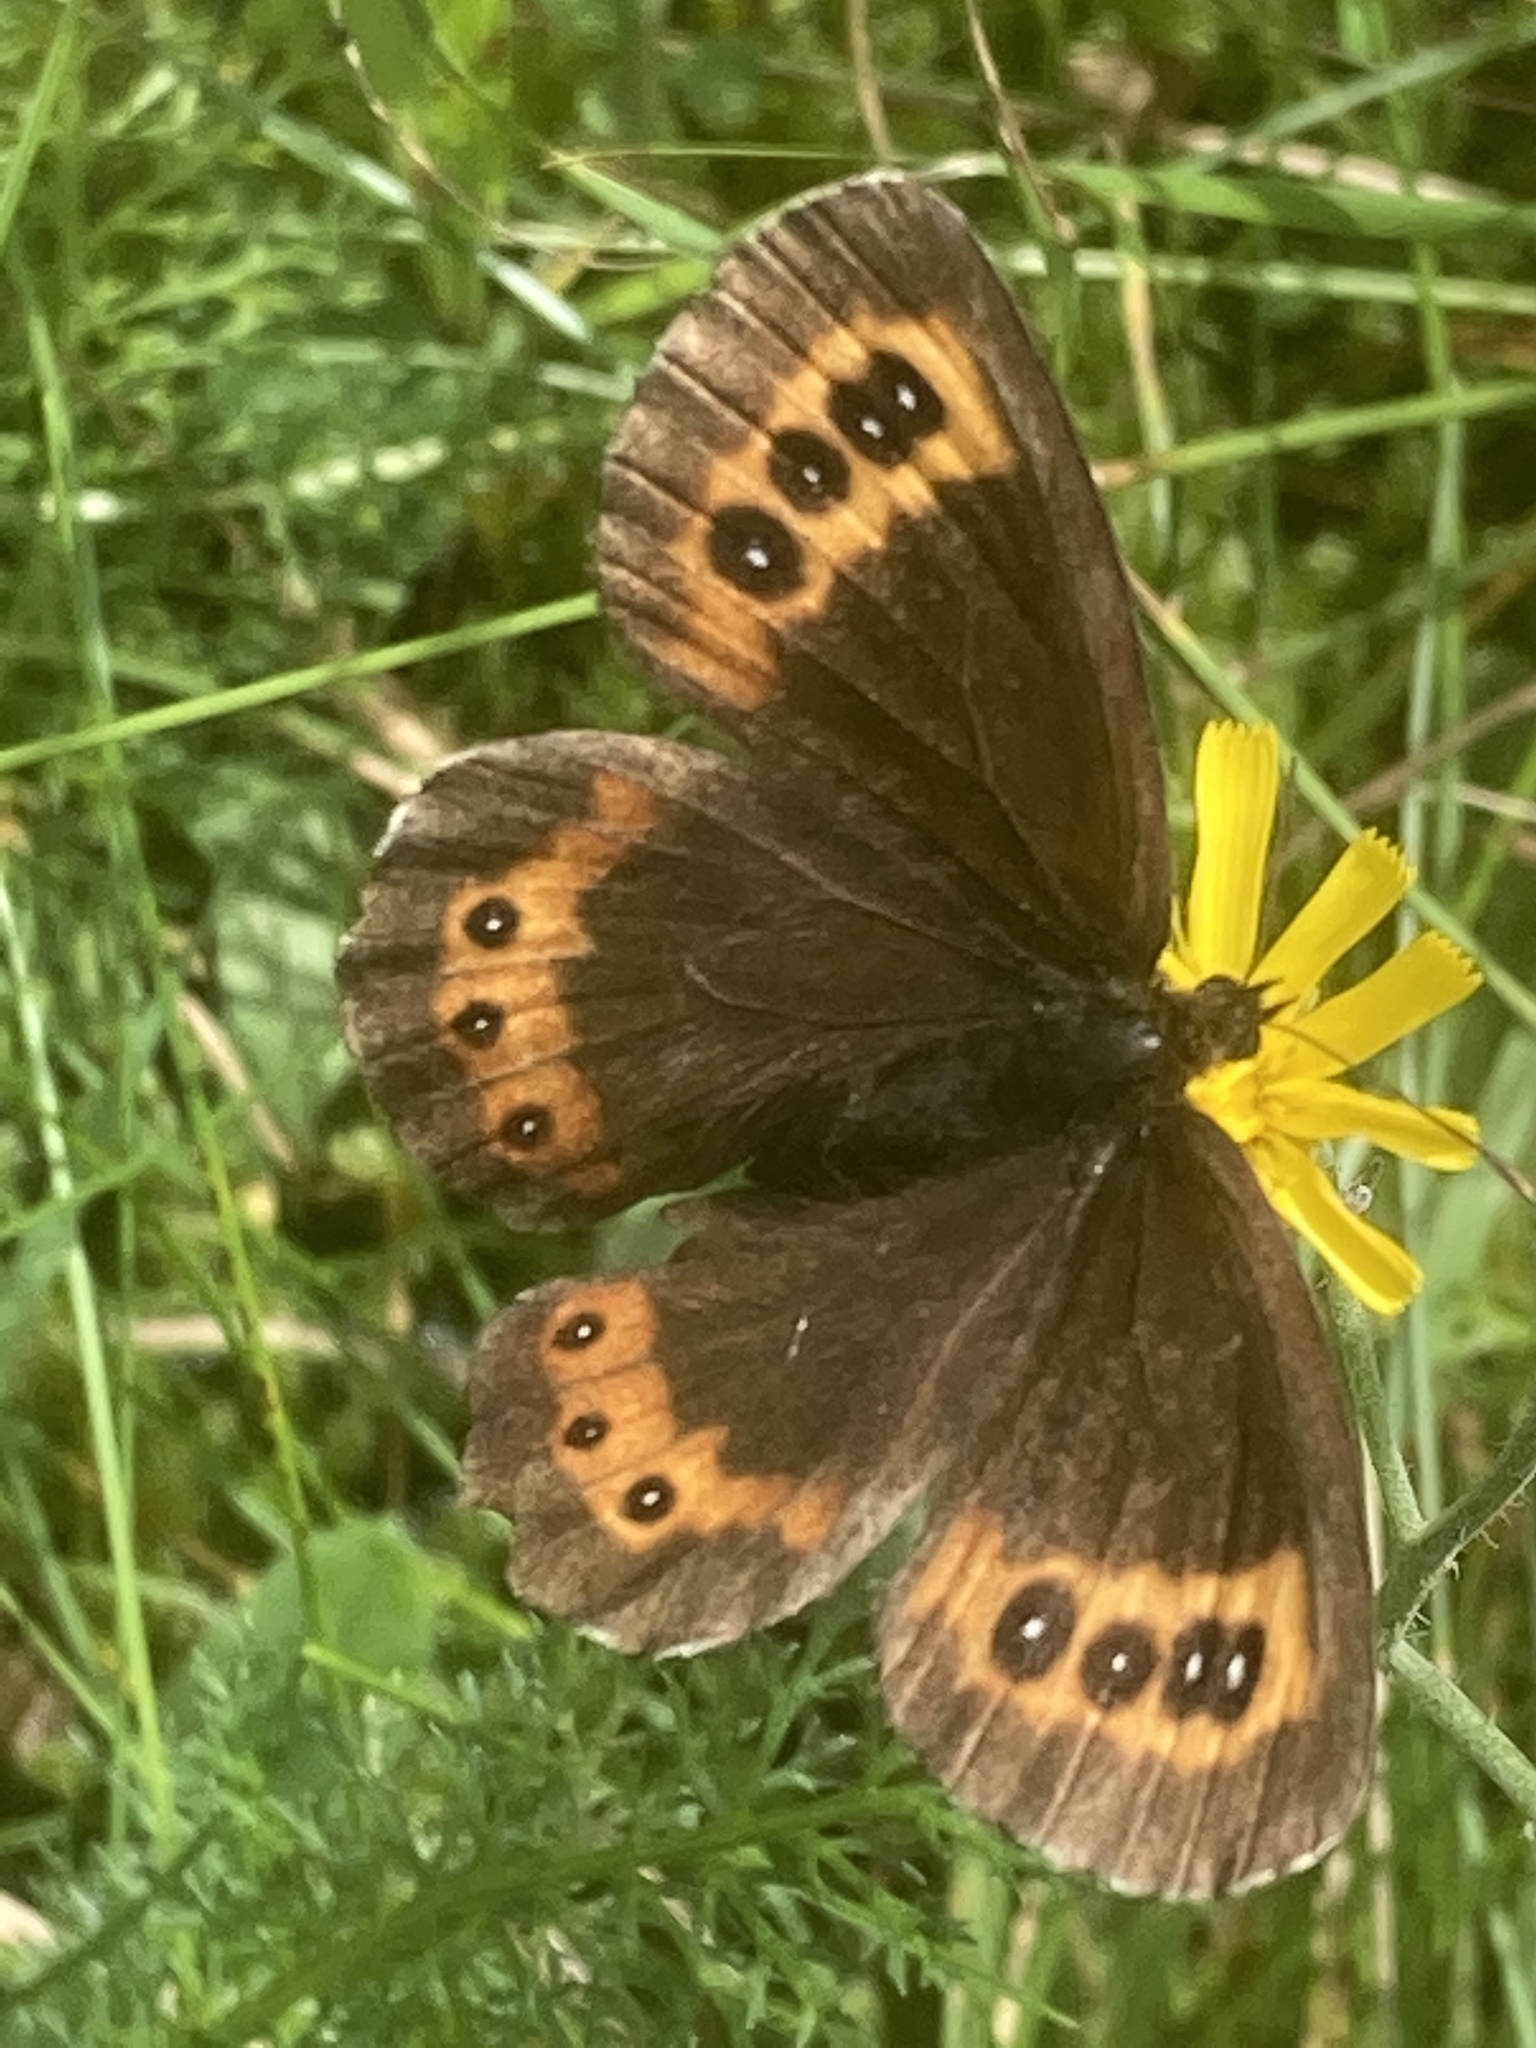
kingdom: Animalia
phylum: Arthropoda
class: Insecta
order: Lepidoptera
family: Nymphalidae
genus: Erebia
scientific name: Erebia ligea
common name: Arran brown
